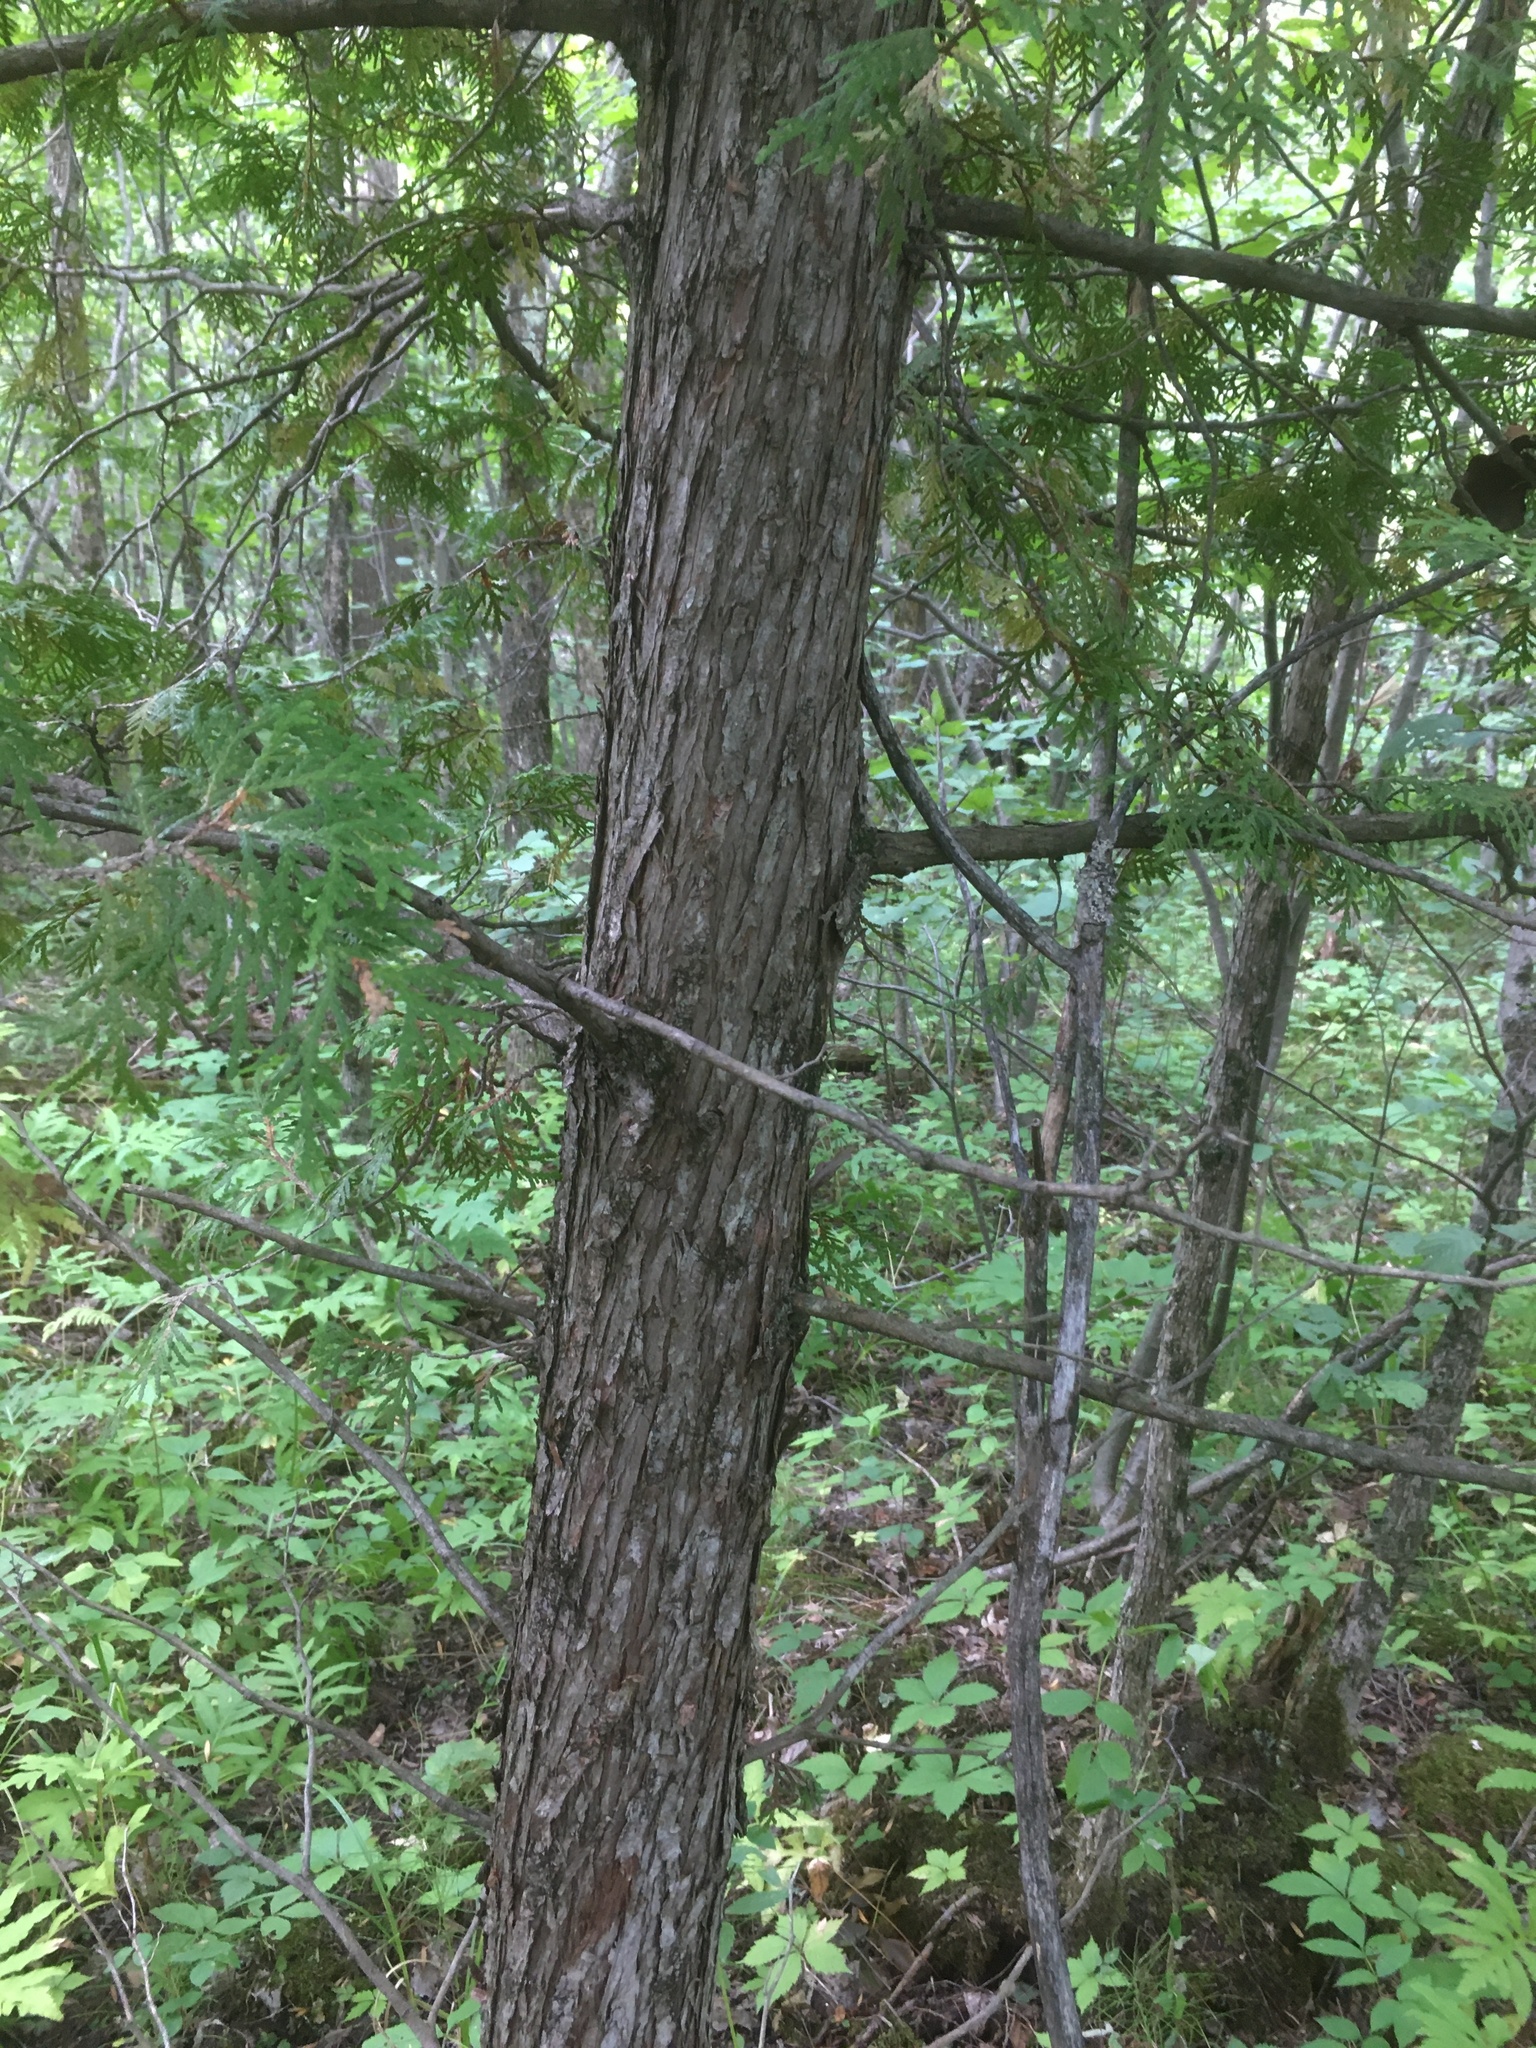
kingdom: Plantae
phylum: Tracheophyta
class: Pinopsida
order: Pinales
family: Cupressaceae
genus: Thuja
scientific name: Thuja occidentalis
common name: Northern white-cedar
